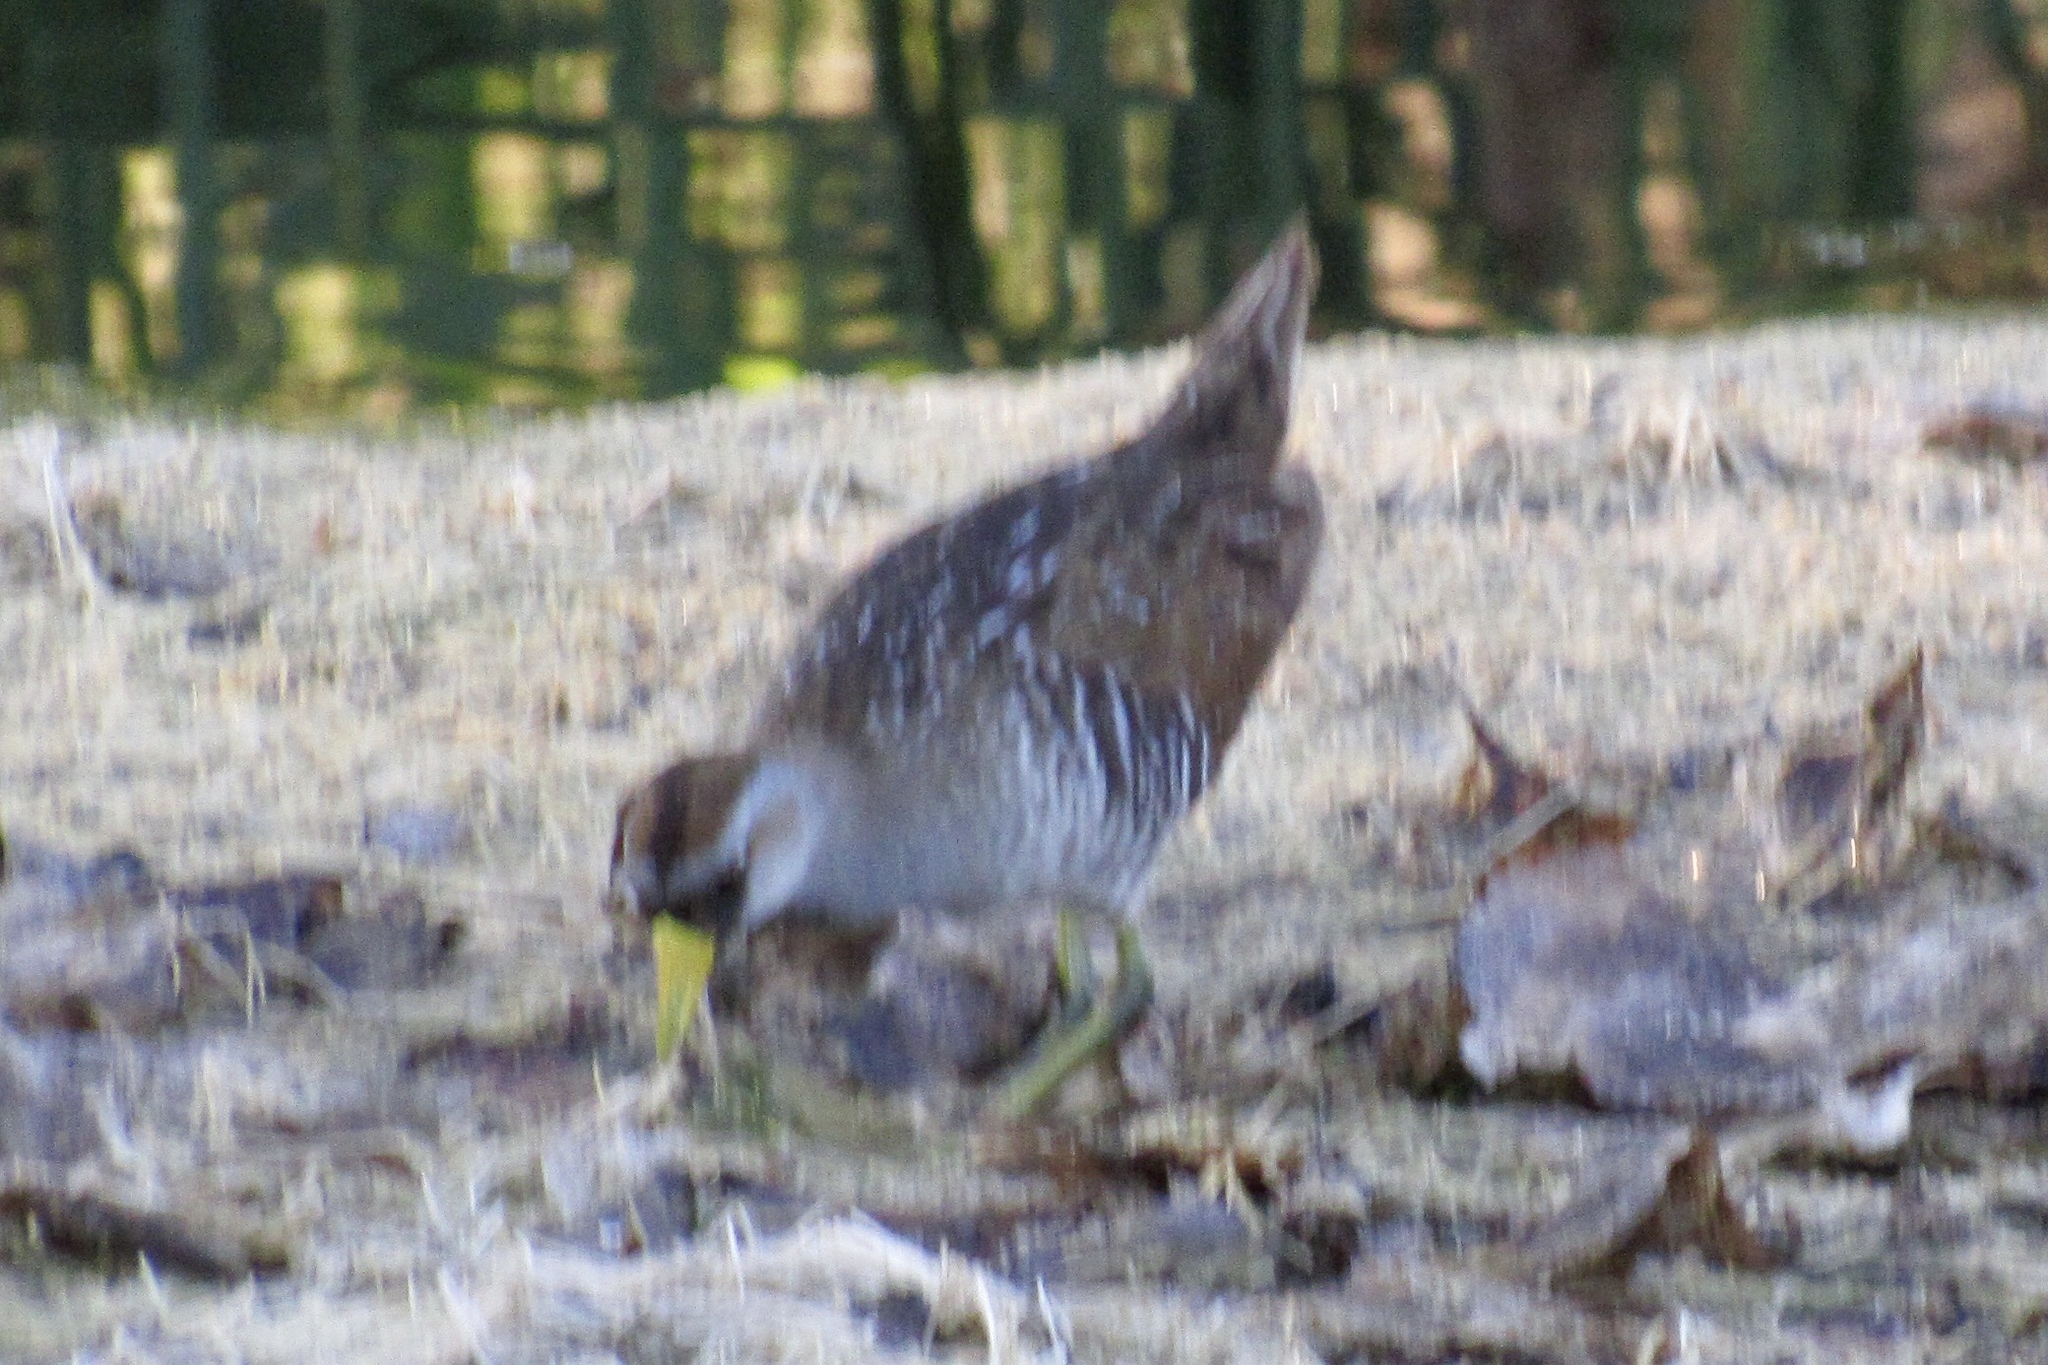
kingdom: Animalia
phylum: Chordata
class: Aves
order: Gruiformes
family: Rallidae
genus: Porzana
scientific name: Porzana carolina
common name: Sora
